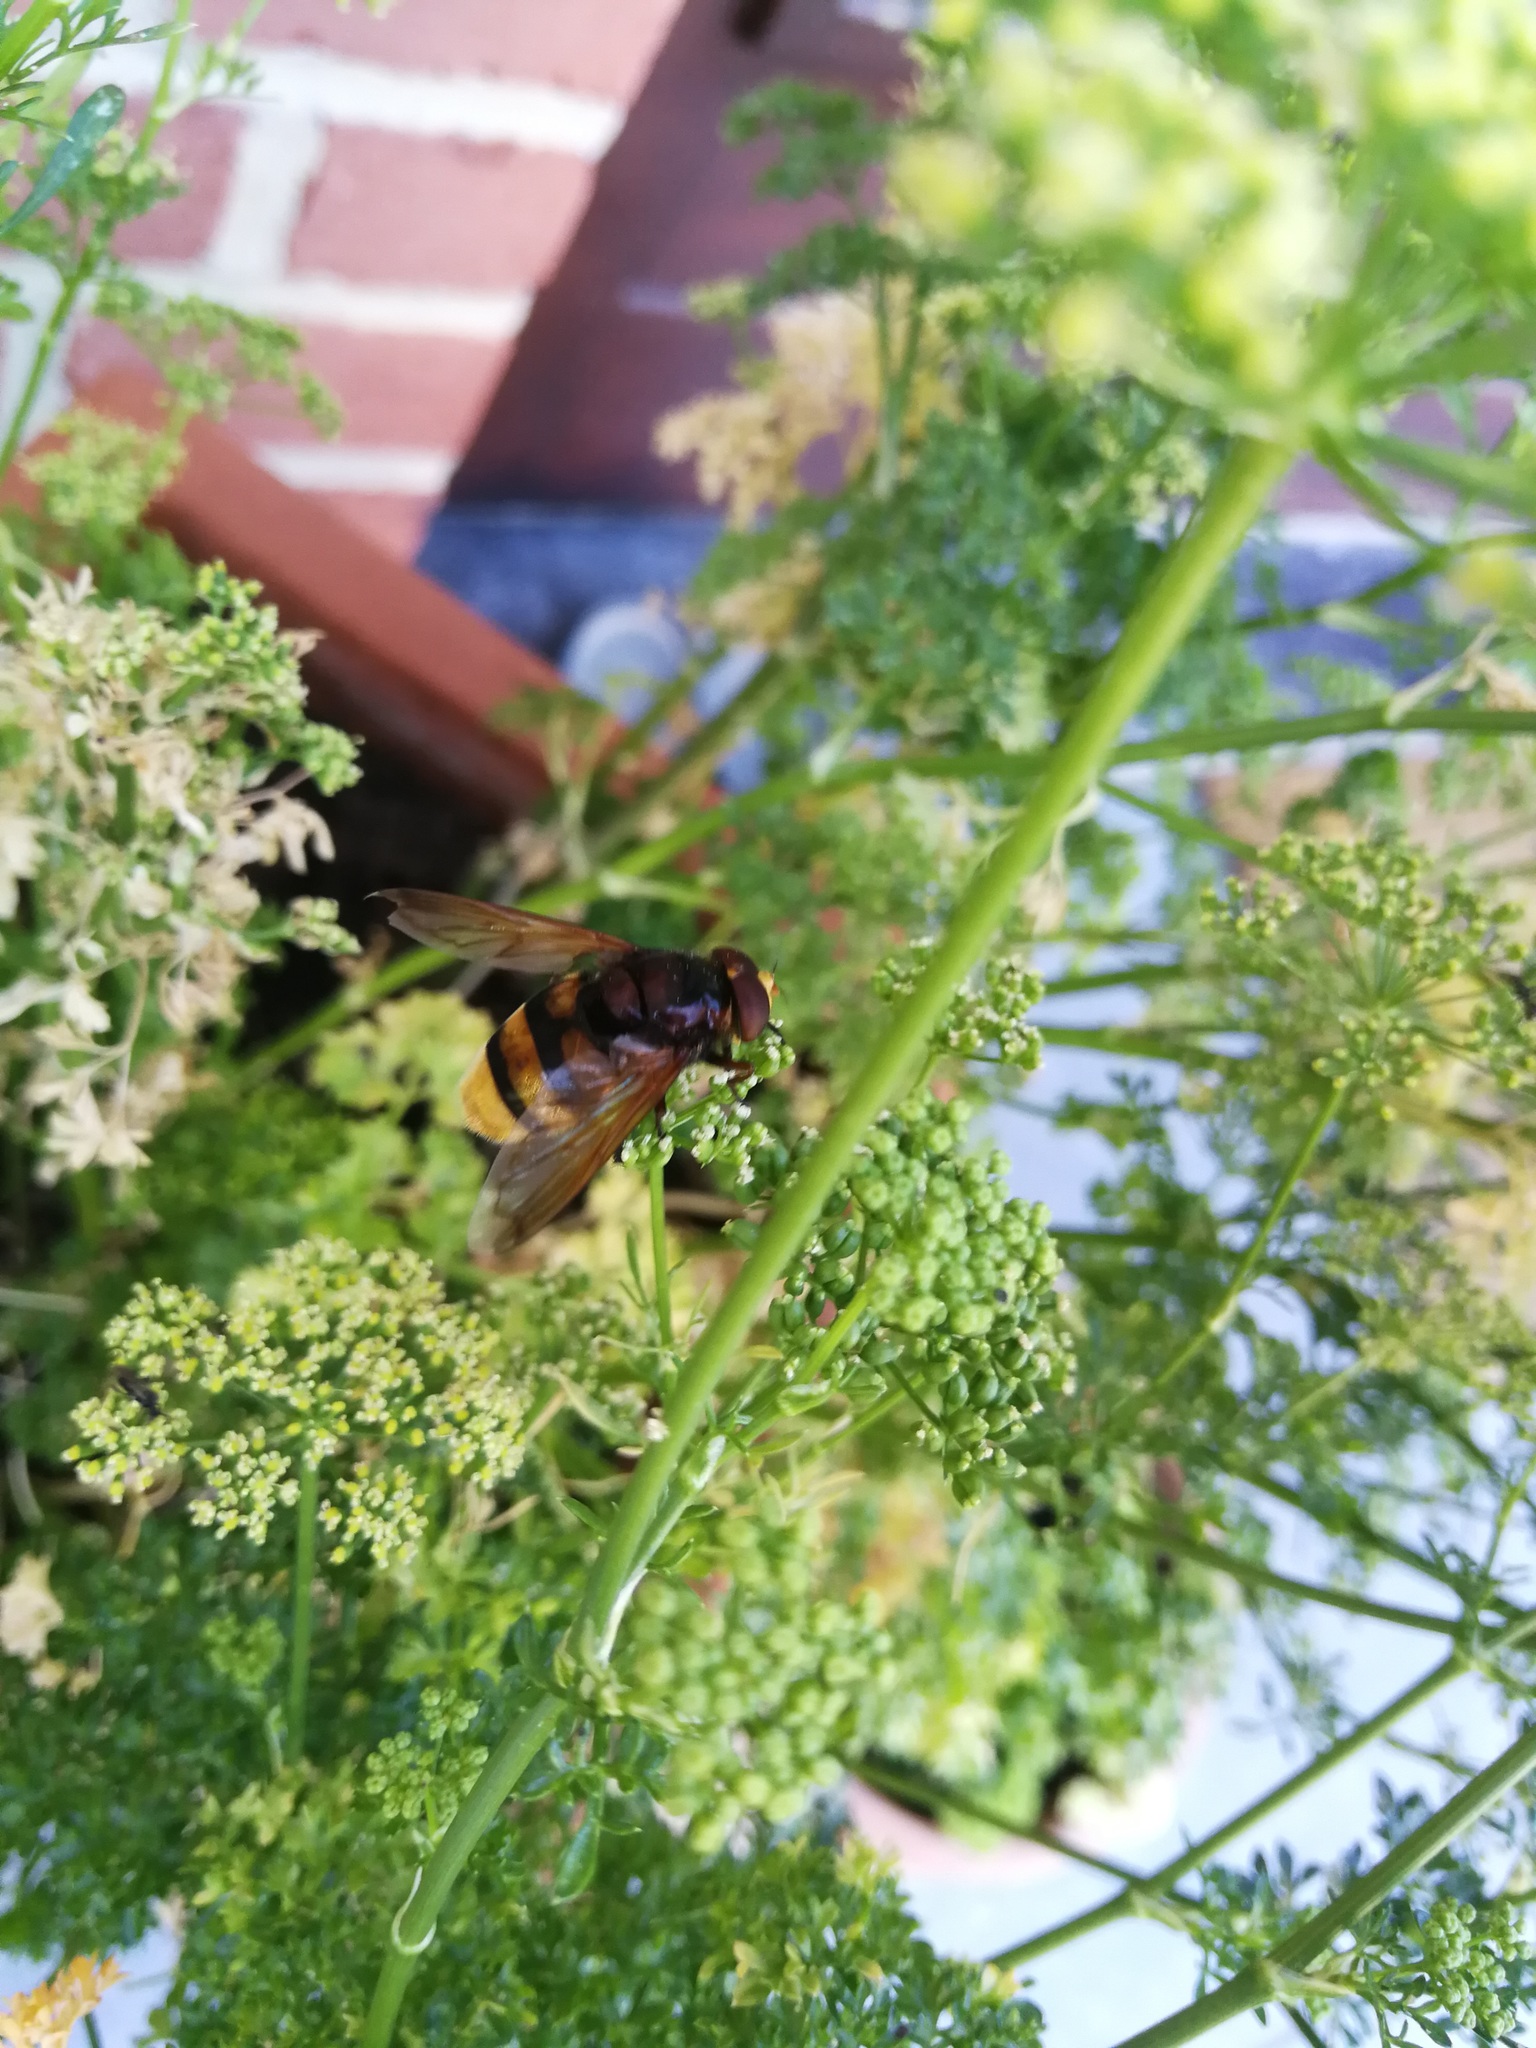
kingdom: Animalia
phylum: Arthropoda
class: Insecta
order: Diptera
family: Syrphidae
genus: Volucella
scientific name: Volucella zonaria
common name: Hornet hoverfly
